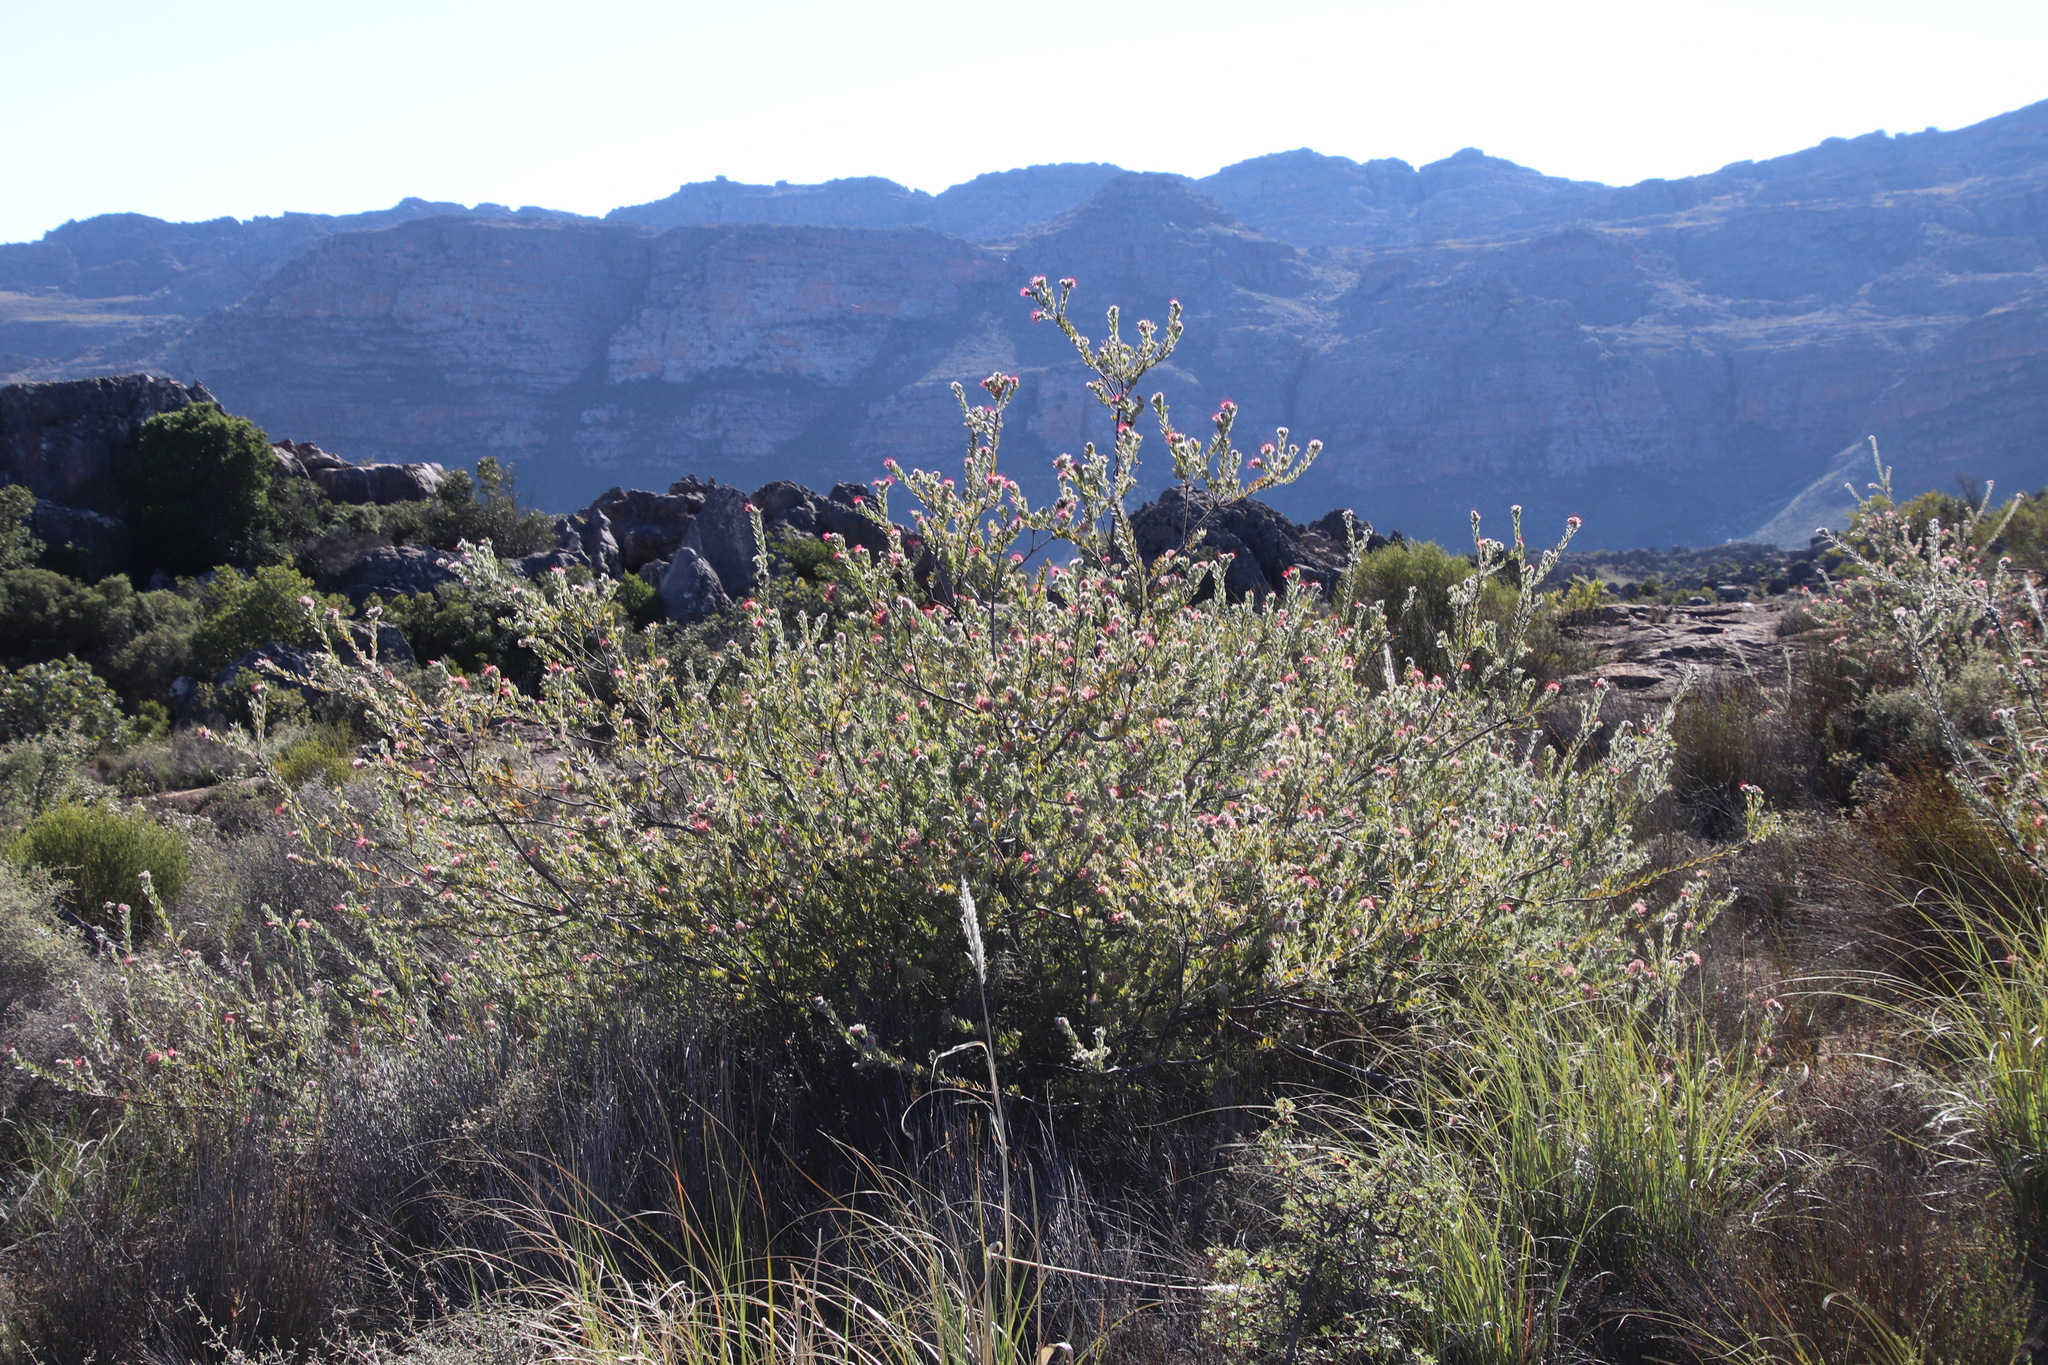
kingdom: Plantae
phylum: Tracheophyta
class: Magnoliopsida
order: Proteales
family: Proteaceae
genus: Leucospermum
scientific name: Leucospermum calligerum
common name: Arid pincushion
